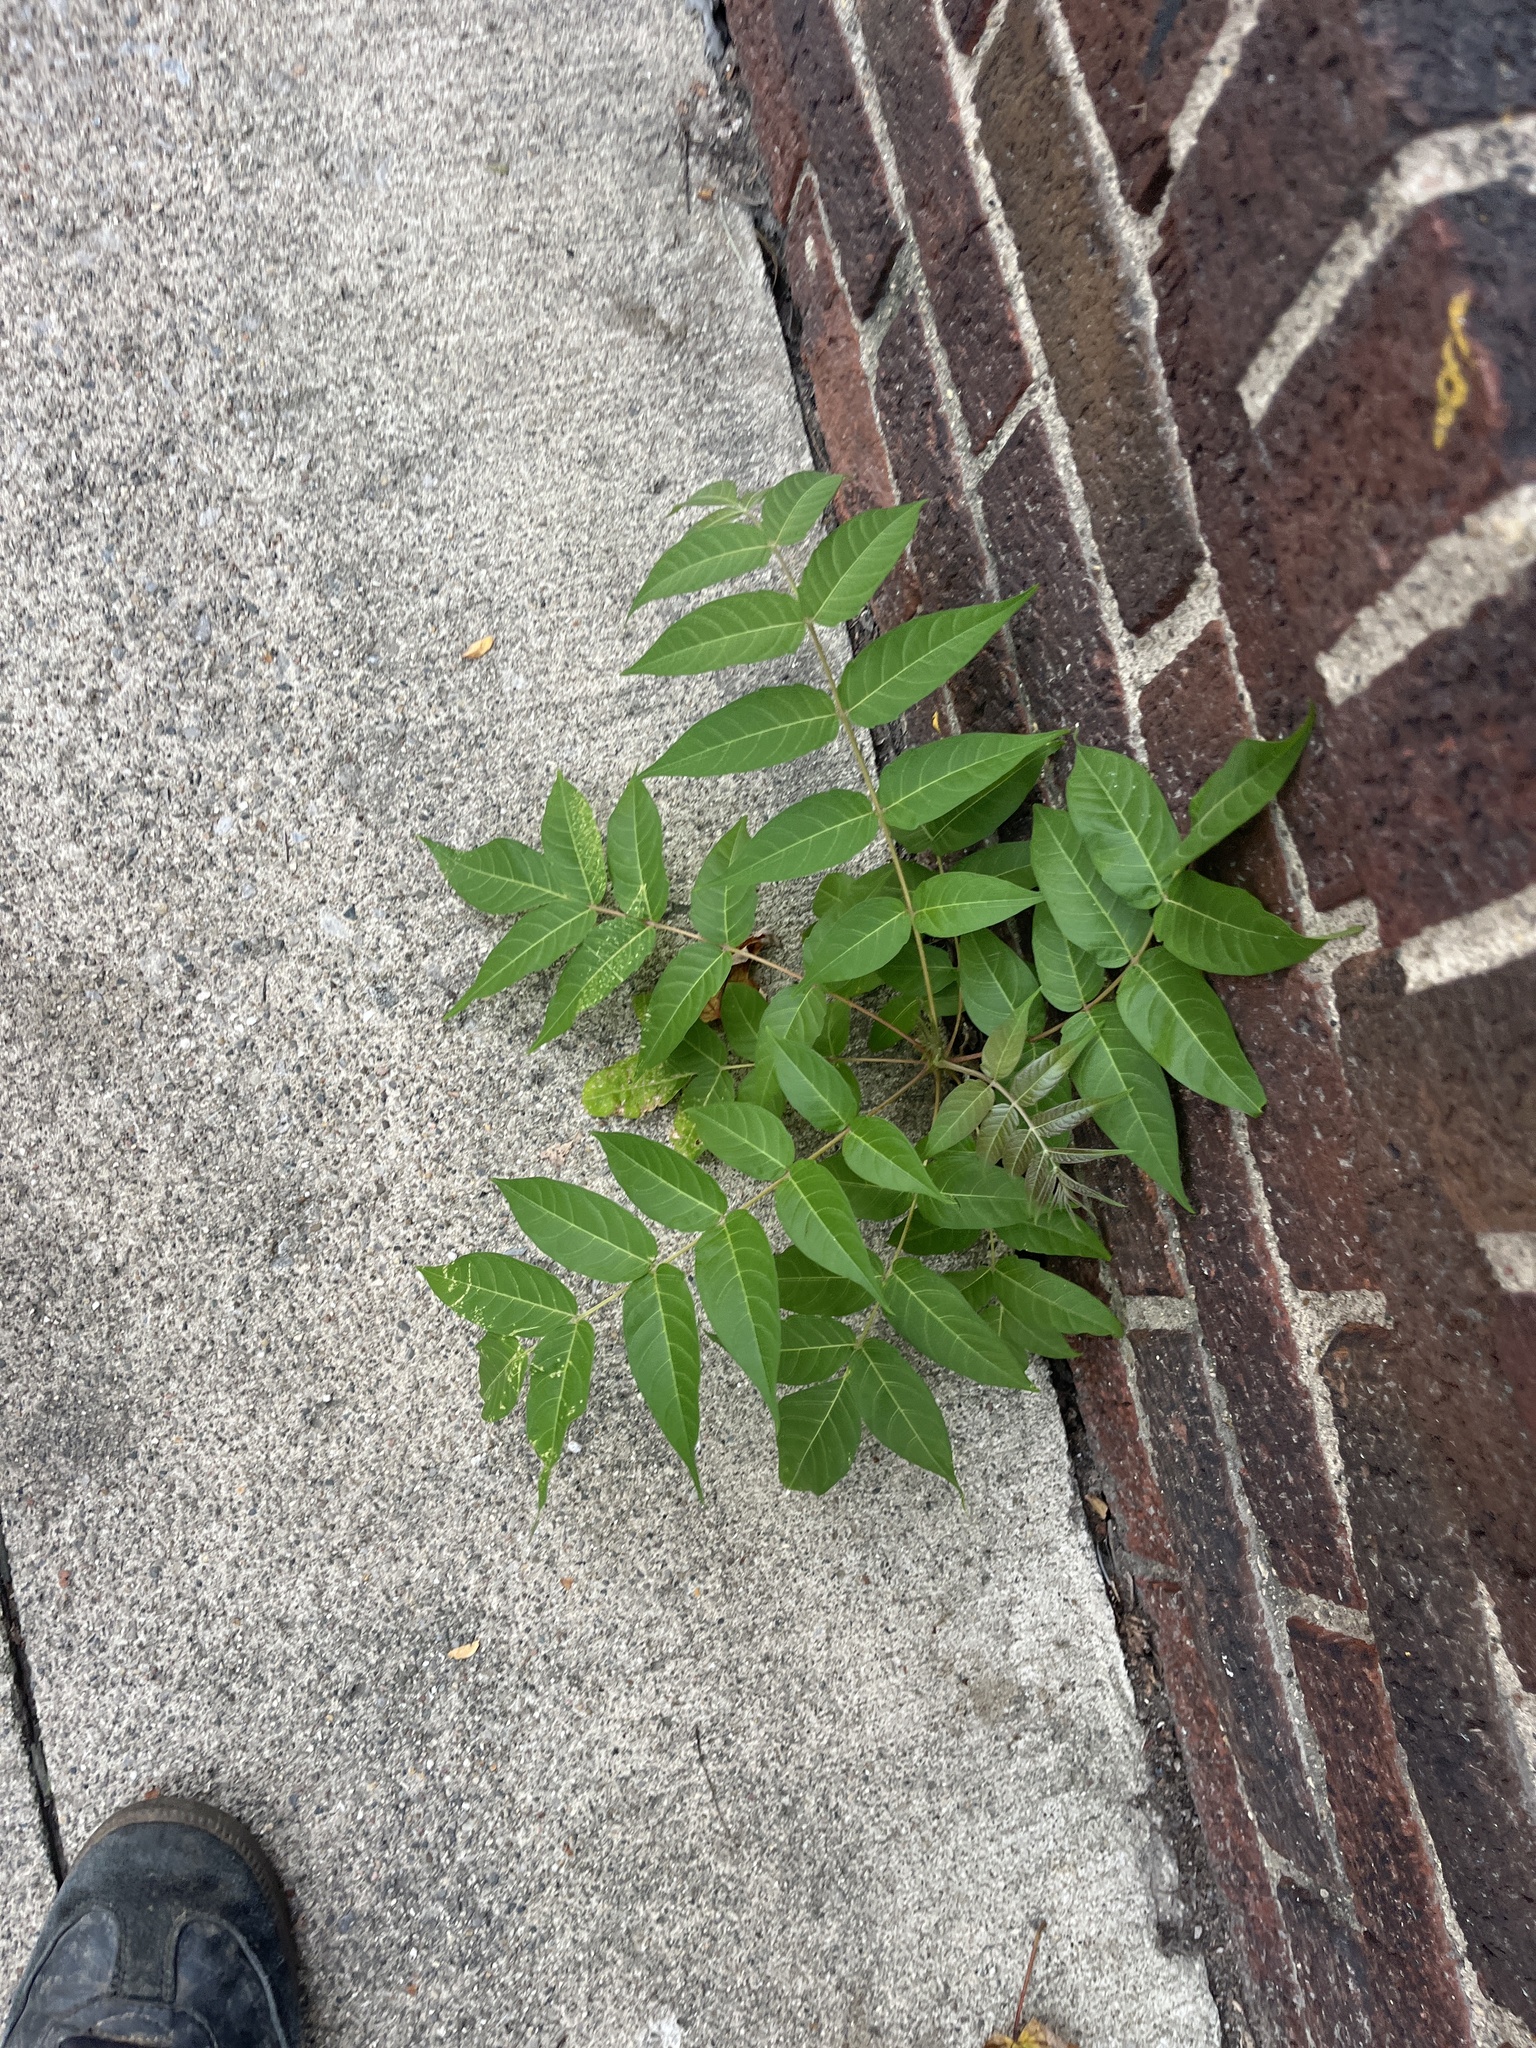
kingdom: Plantae
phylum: Tracheophyta
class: Magnoliopsida
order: Sapindales
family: Simaroubaceae
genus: Ailanthus
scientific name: Ailanthus altissima
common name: Tree-of-heaven
